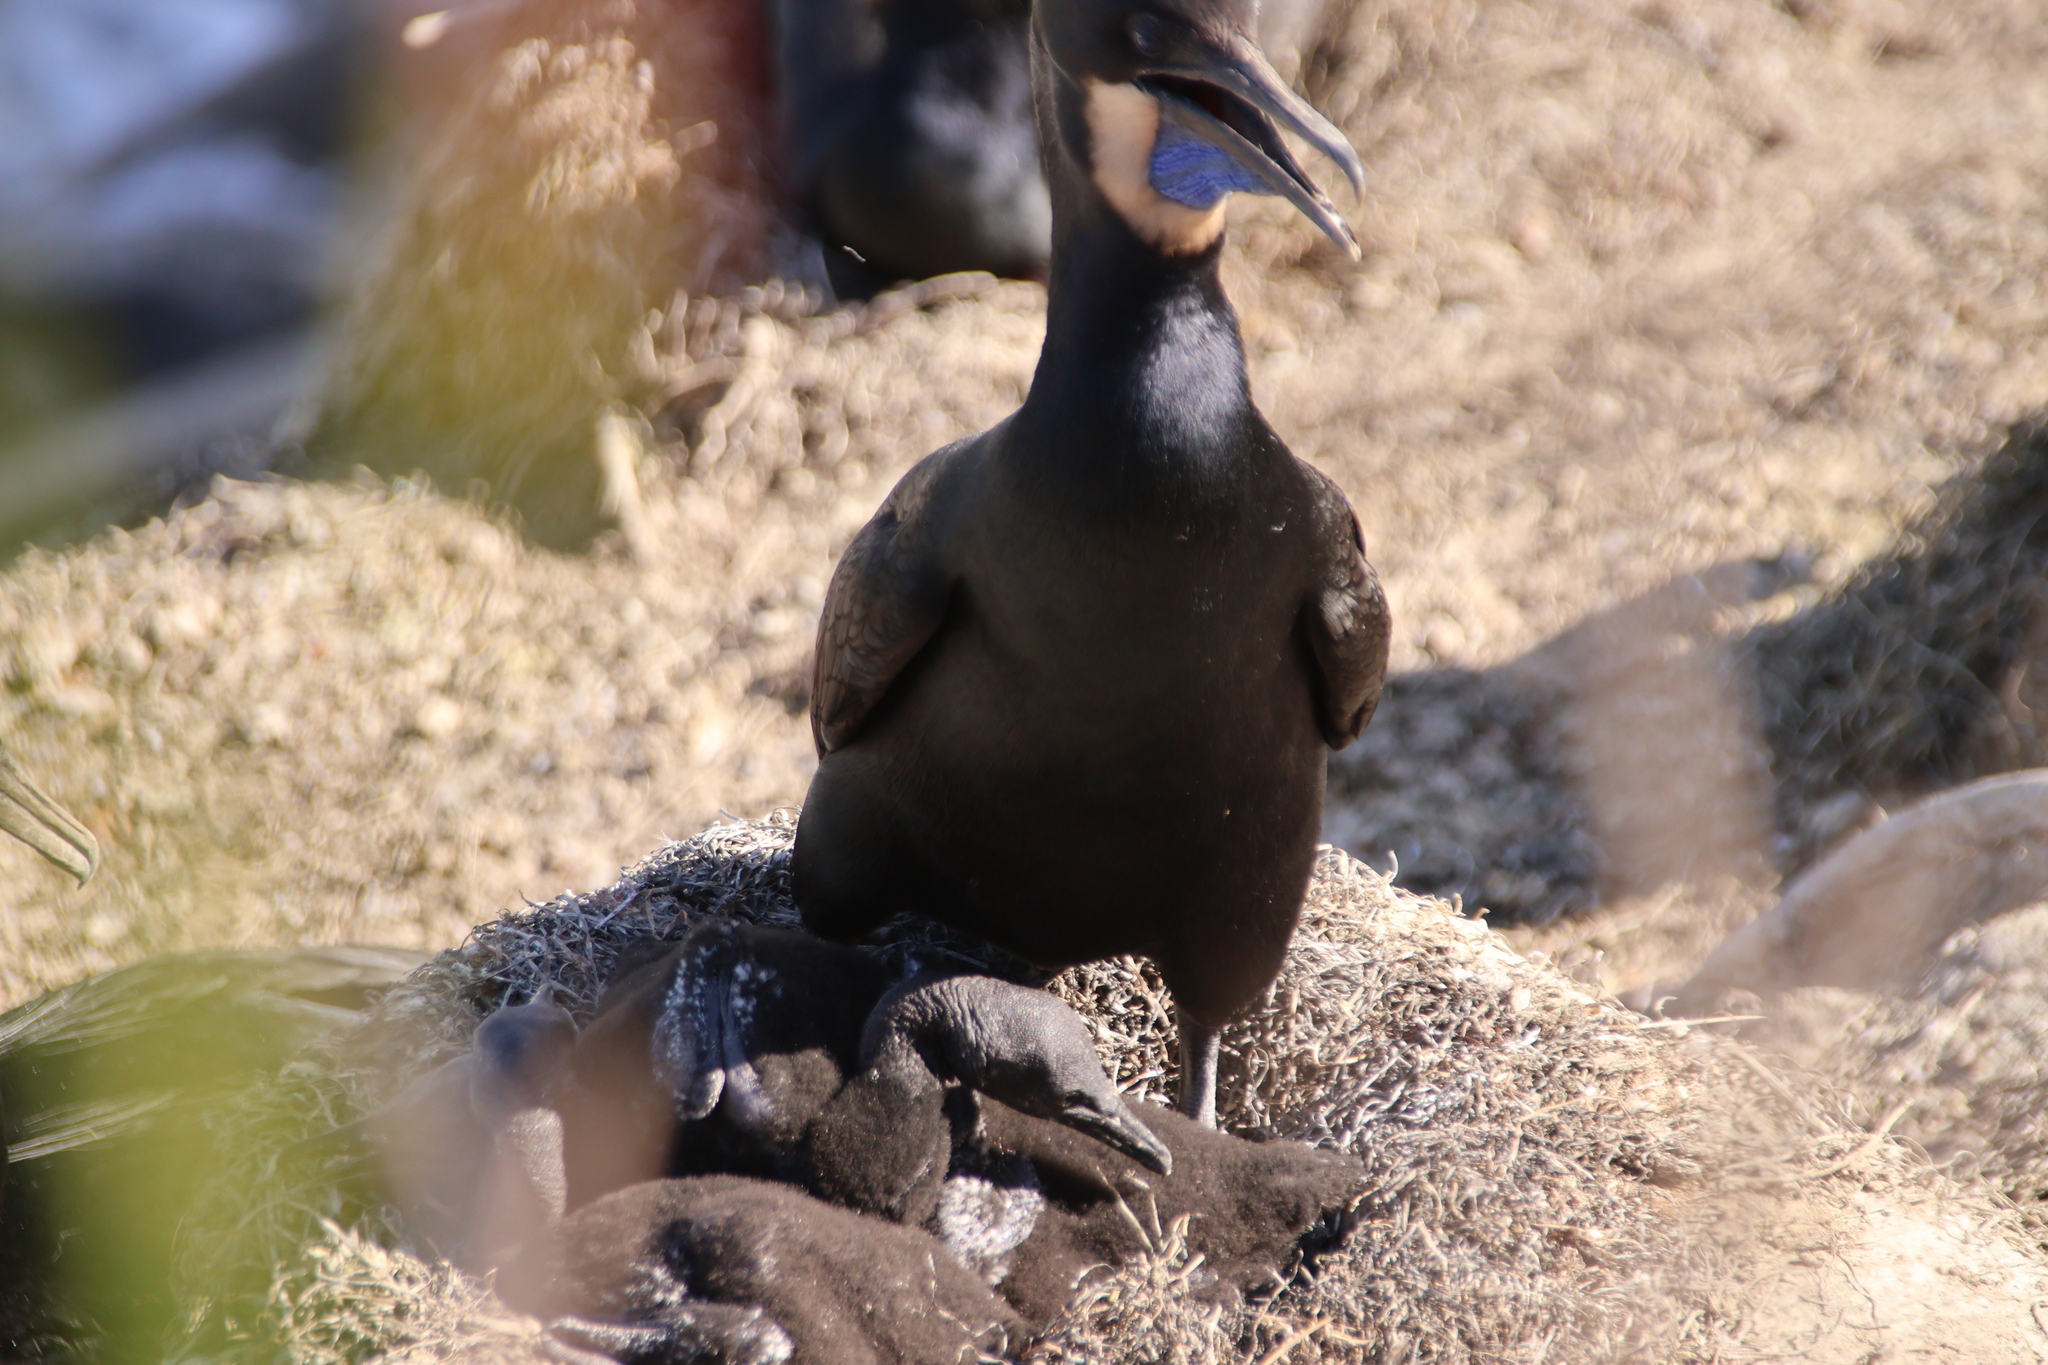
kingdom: Animalia
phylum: Chordata
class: Aves
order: Suliformes
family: Phalacrocoracidae
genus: Urile
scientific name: Urile penicillatus
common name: Brandt's cormorant
